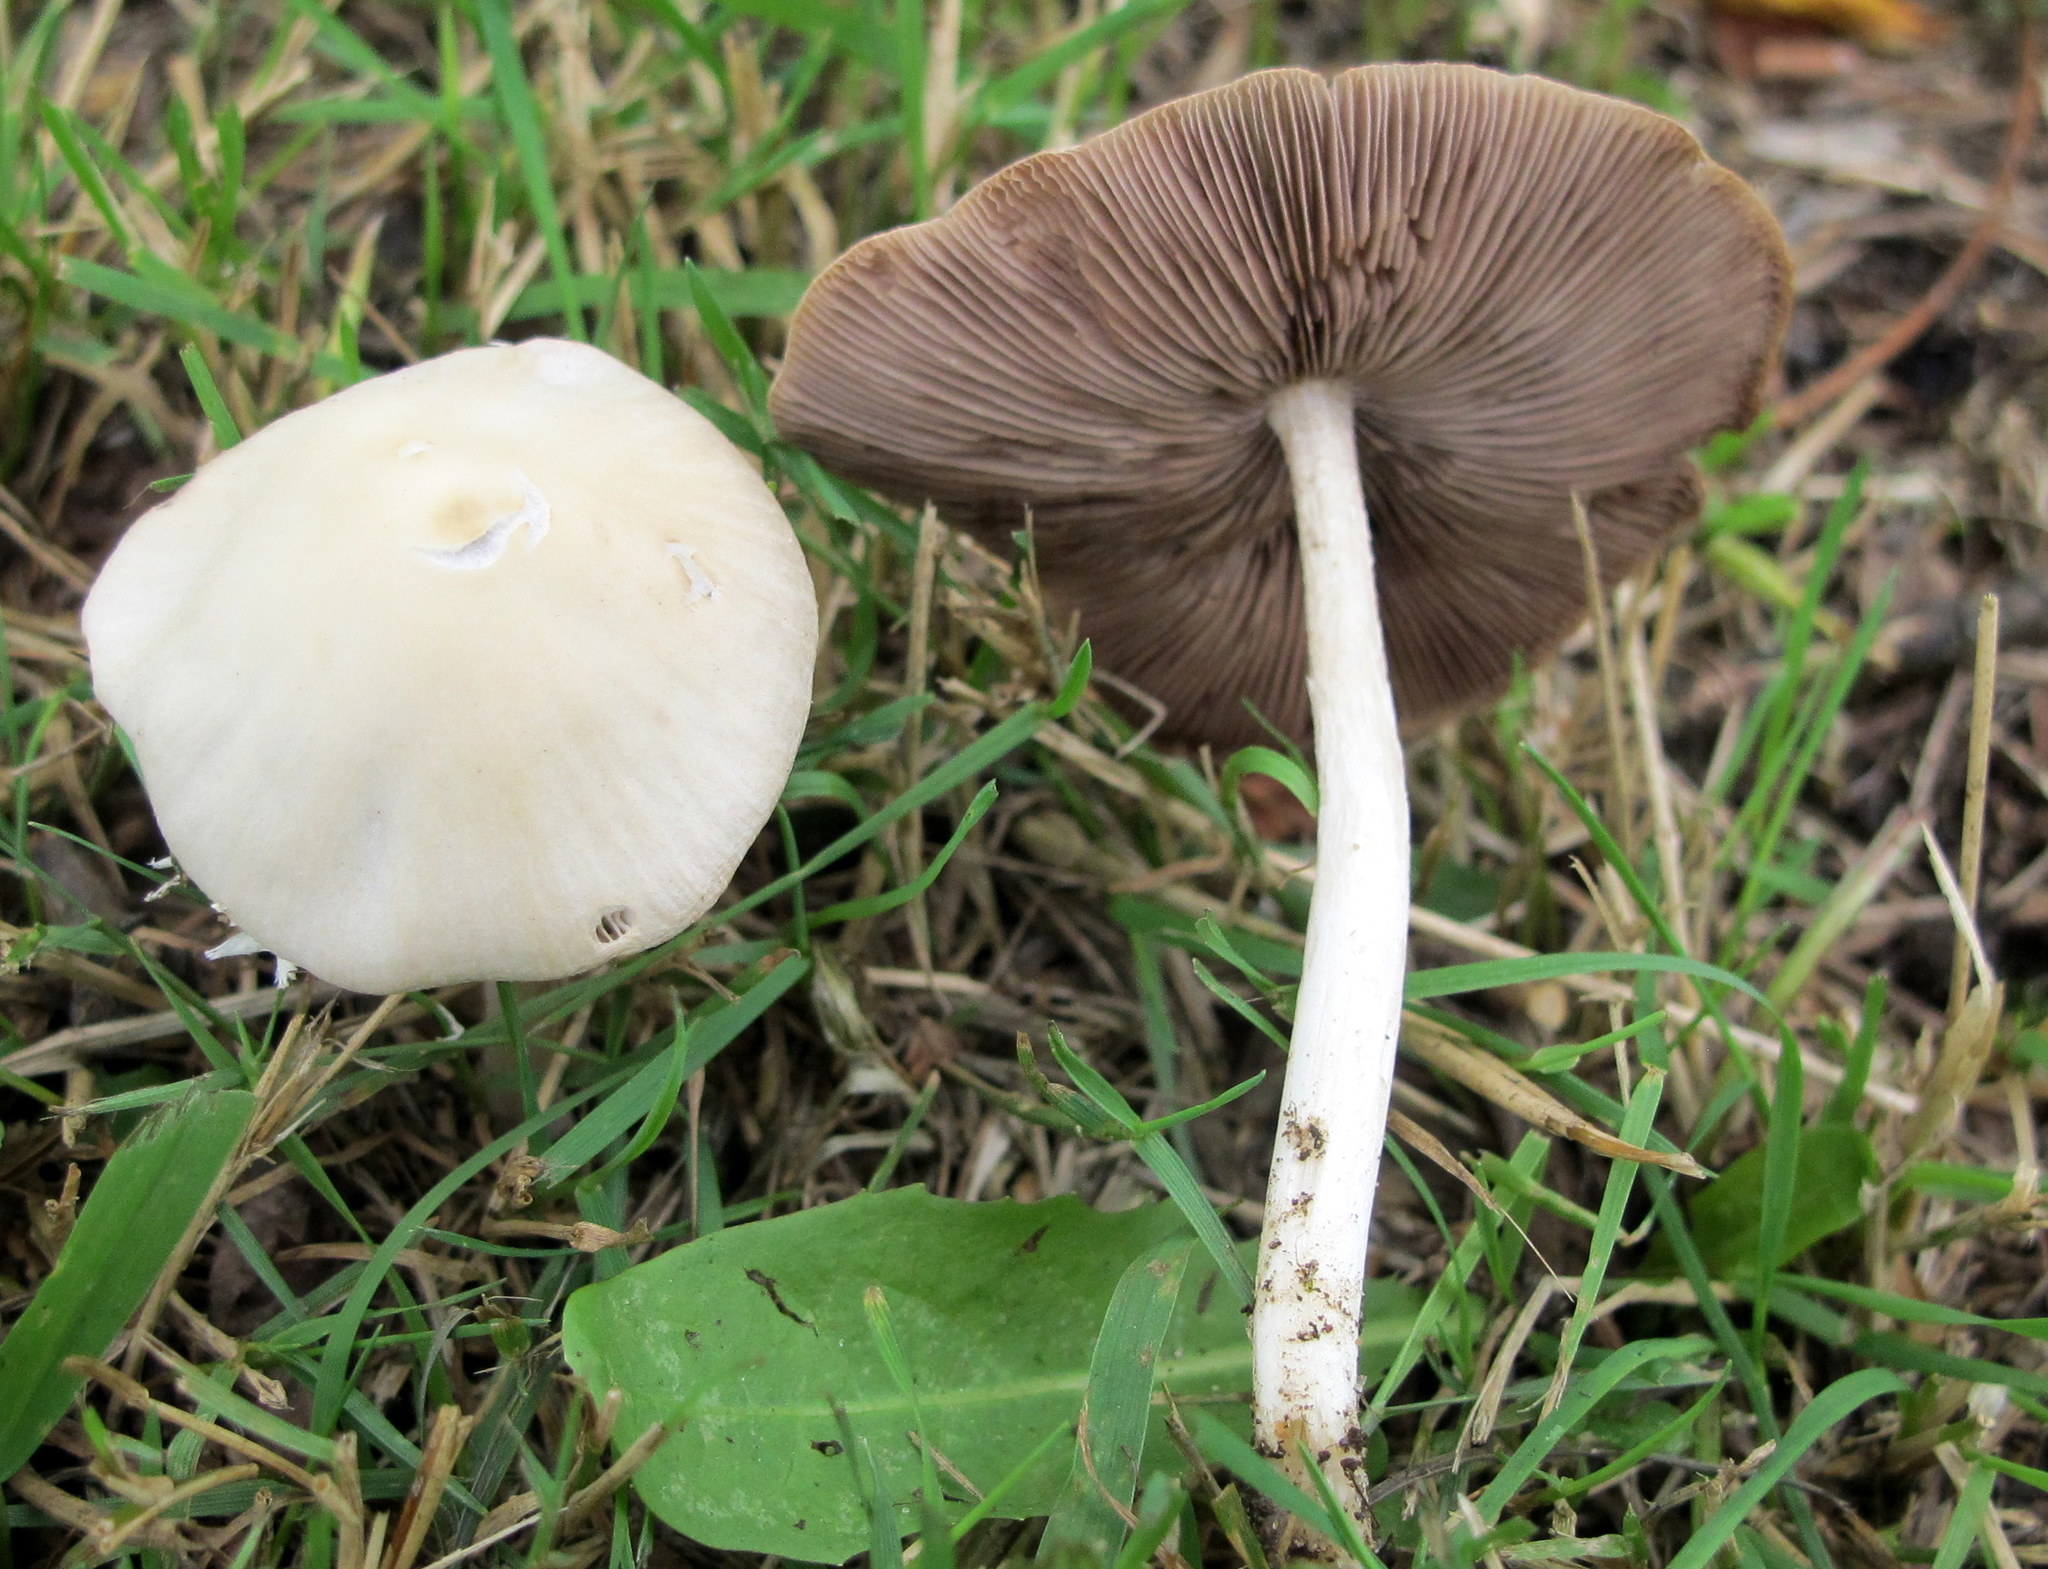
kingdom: Fungi
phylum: Basidiomycota
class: Agaricomycetes
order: Agaricales
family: Psathyrellaceae
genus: Candolleomyces
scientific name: Candolleomyces candolleanus
